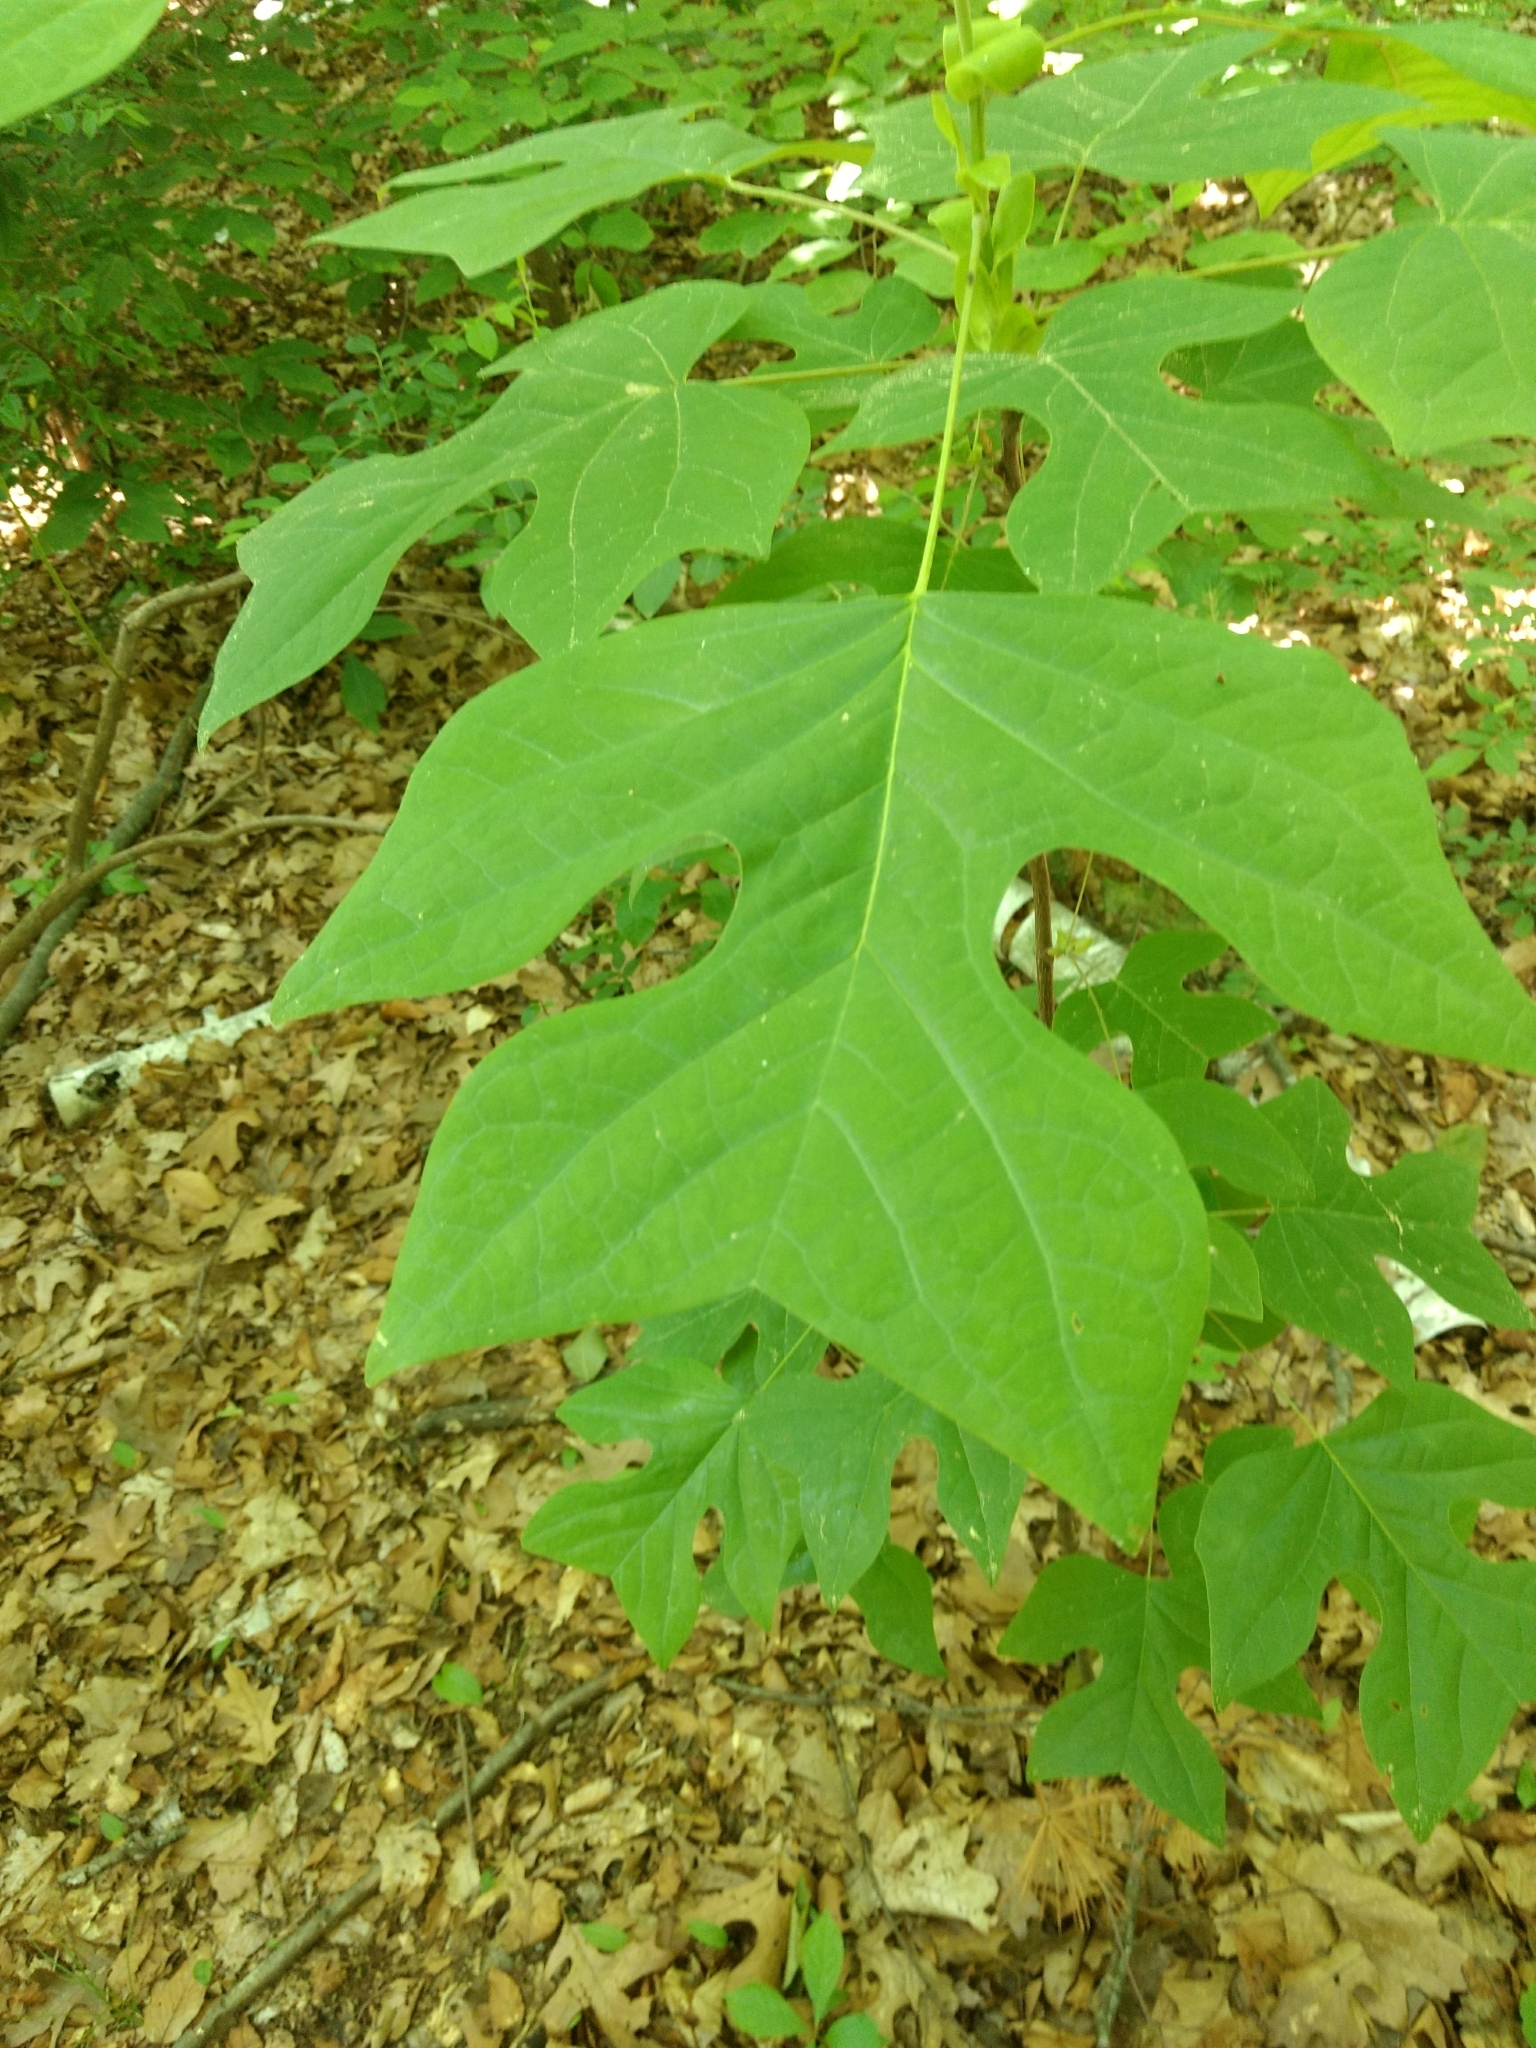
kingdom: Plantae
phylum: Tracheophyta
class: Magnoliopsida
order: Magnoliales
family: Magnoliaceae
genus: Liriodendron
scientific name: Liriodendron tulipifera
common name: Tulip tree
